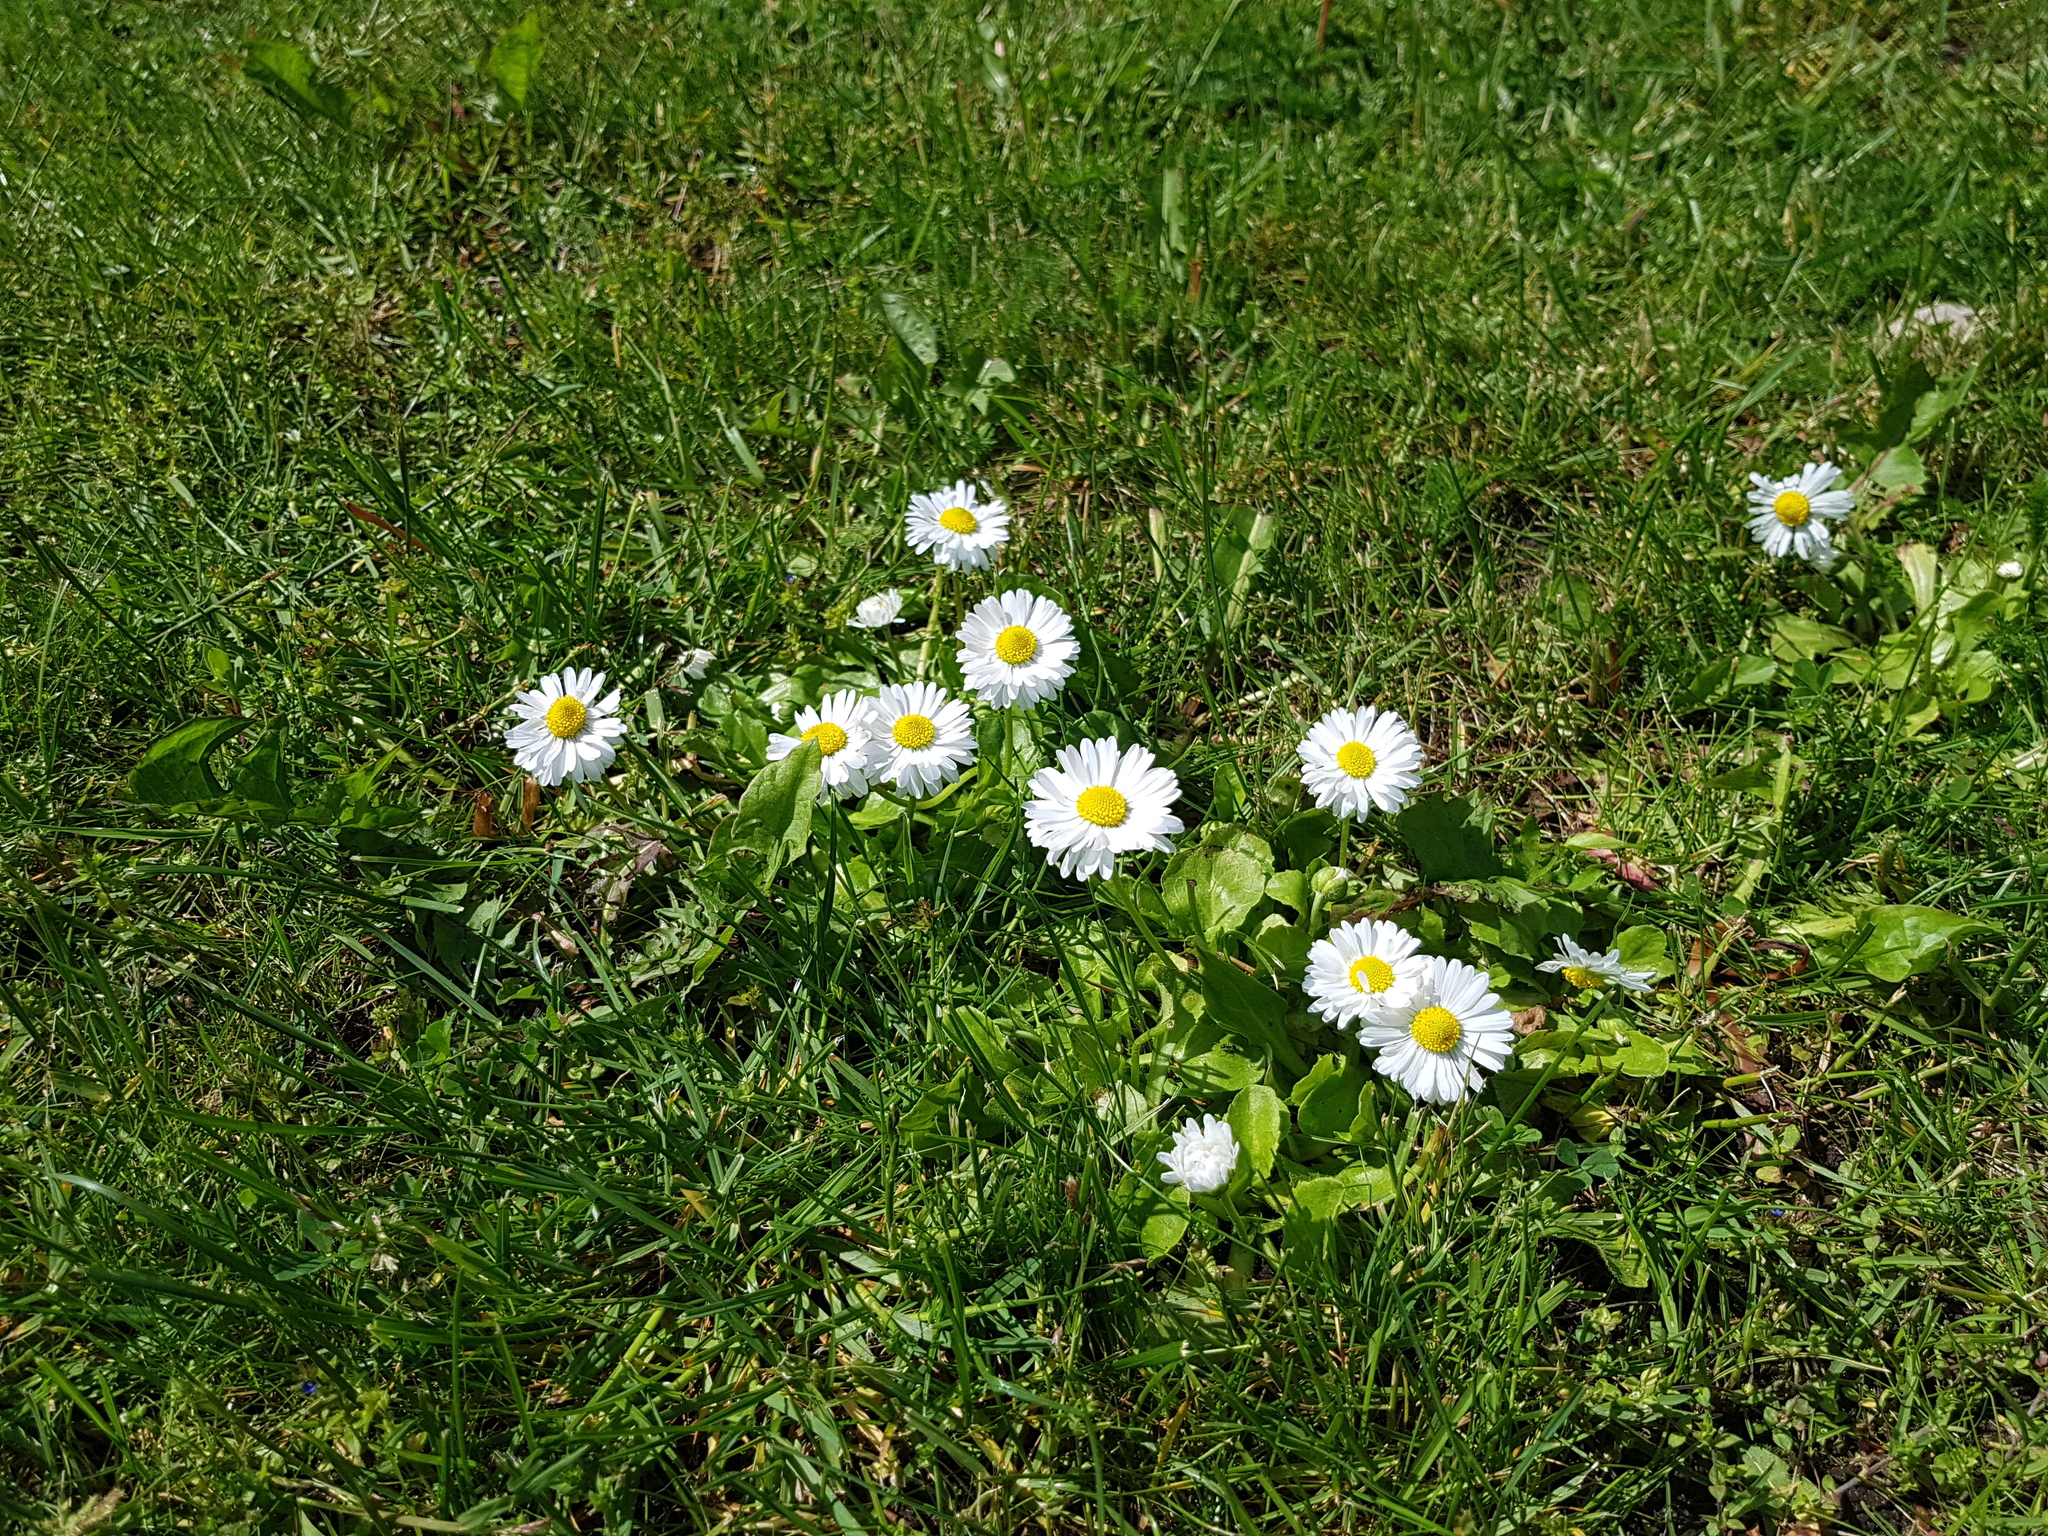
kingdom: Plantae
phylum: Tracheophyta
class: Magnoliopsida
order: Asterales
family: Asteraceae
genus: Bellis
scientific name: Bellis perennis
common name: Lawndaisy
